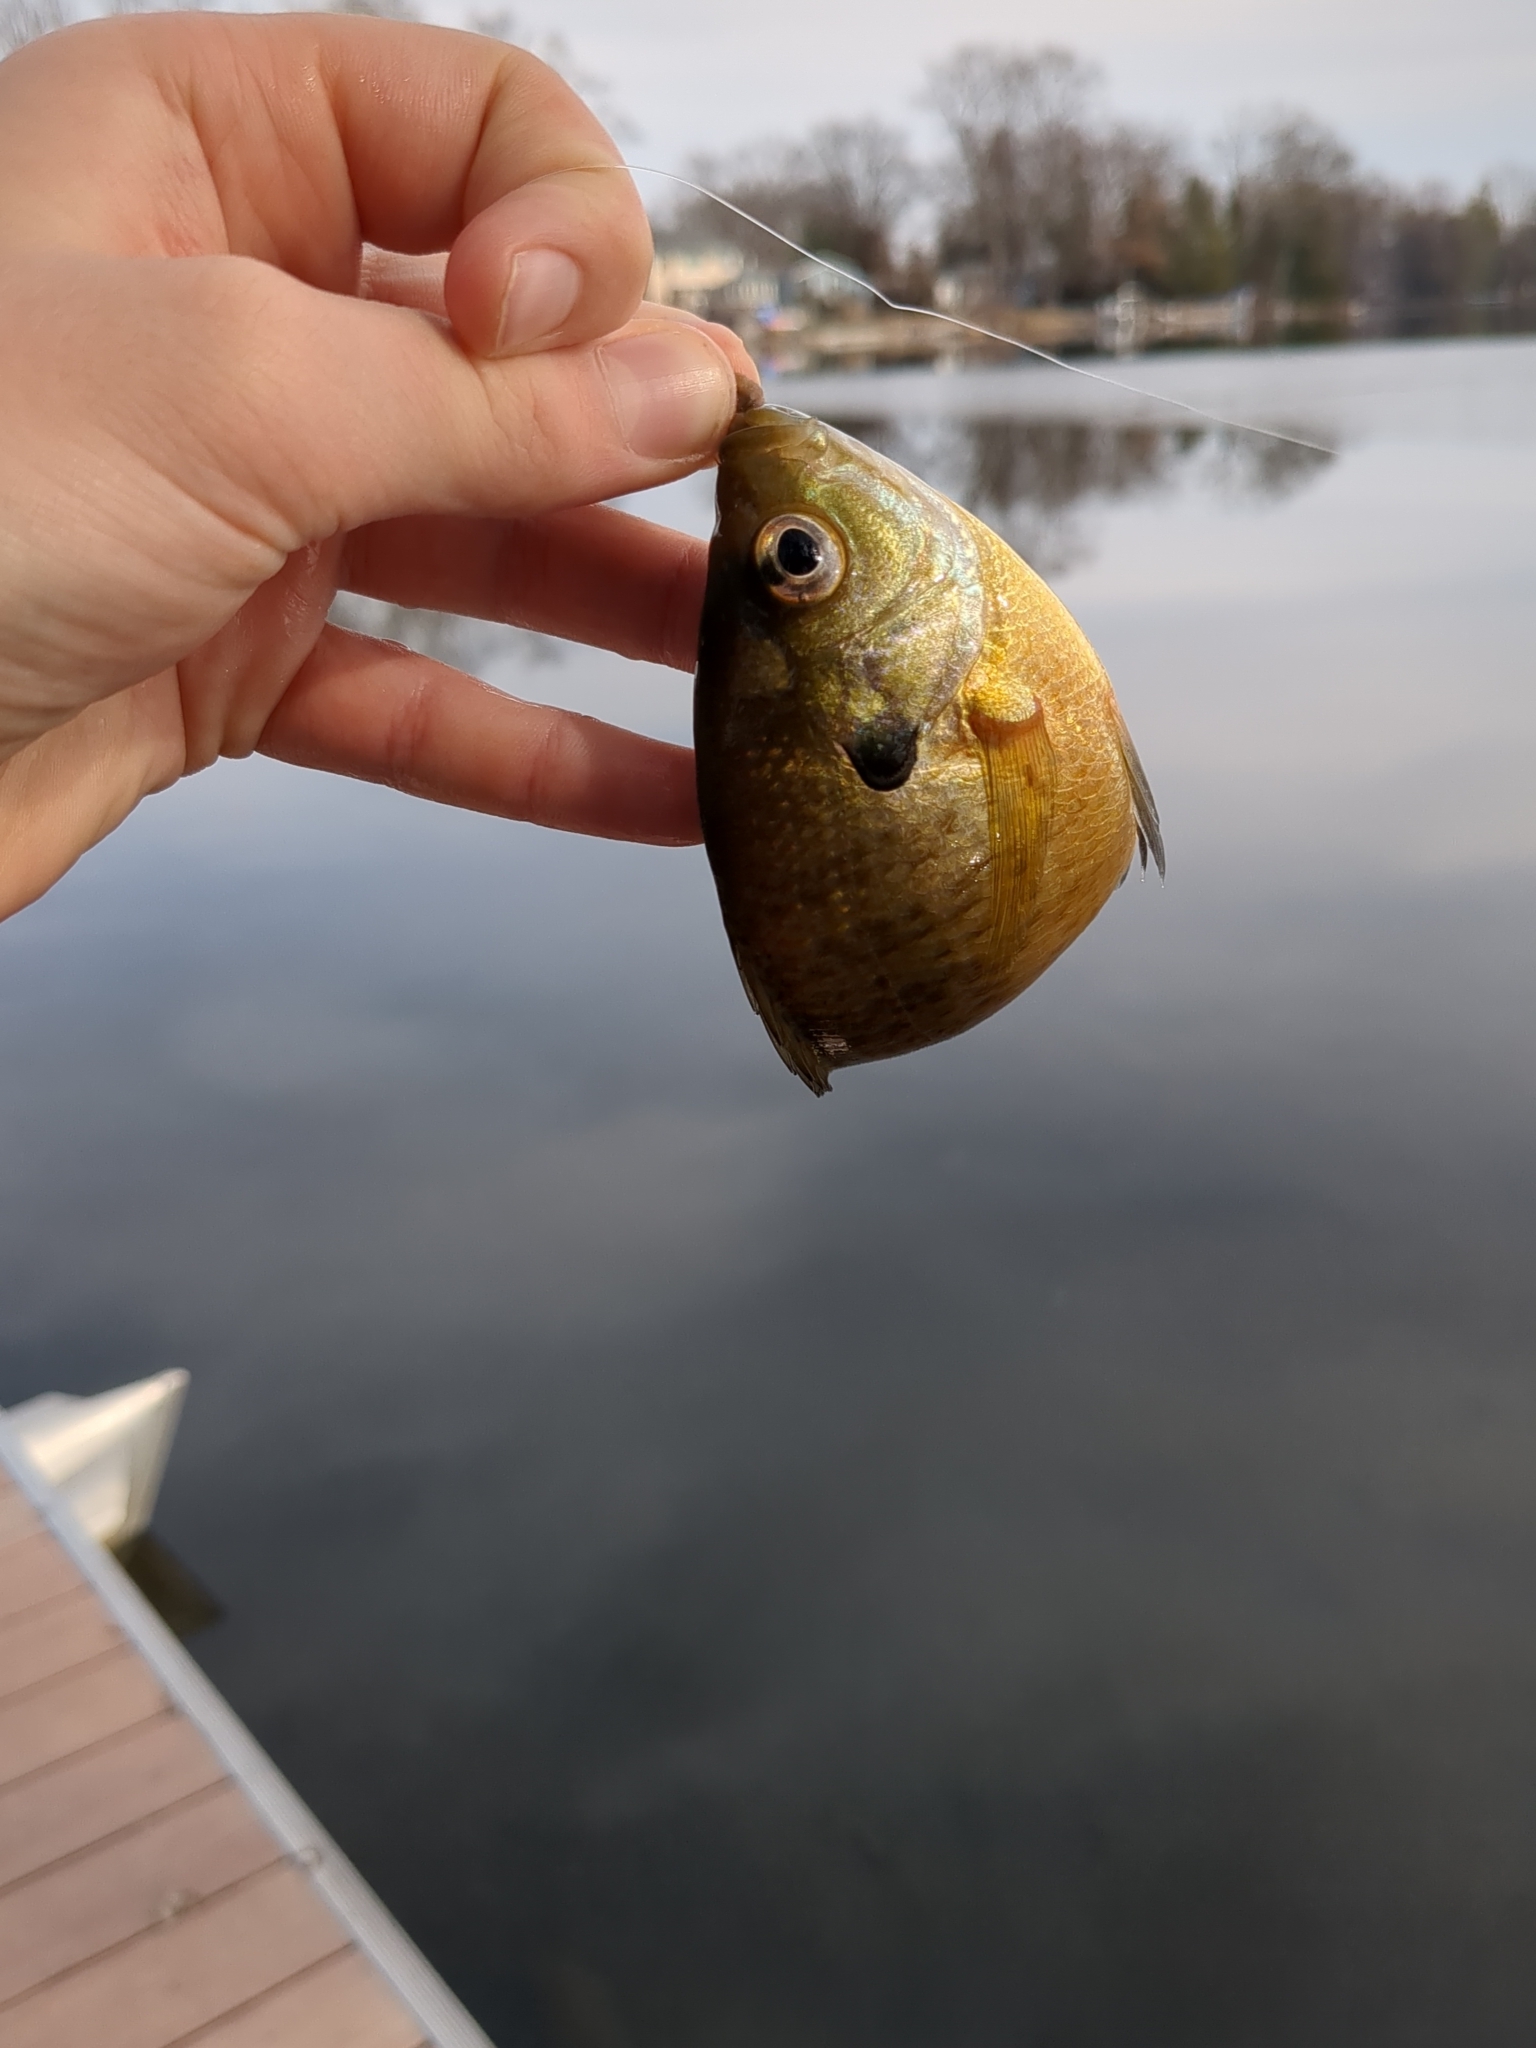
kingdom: Animalia
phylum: Chordata
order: Perciformes
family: Centrarchidae
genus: Lepomis
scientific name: Lepomis macrochirus
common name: Bluegill
